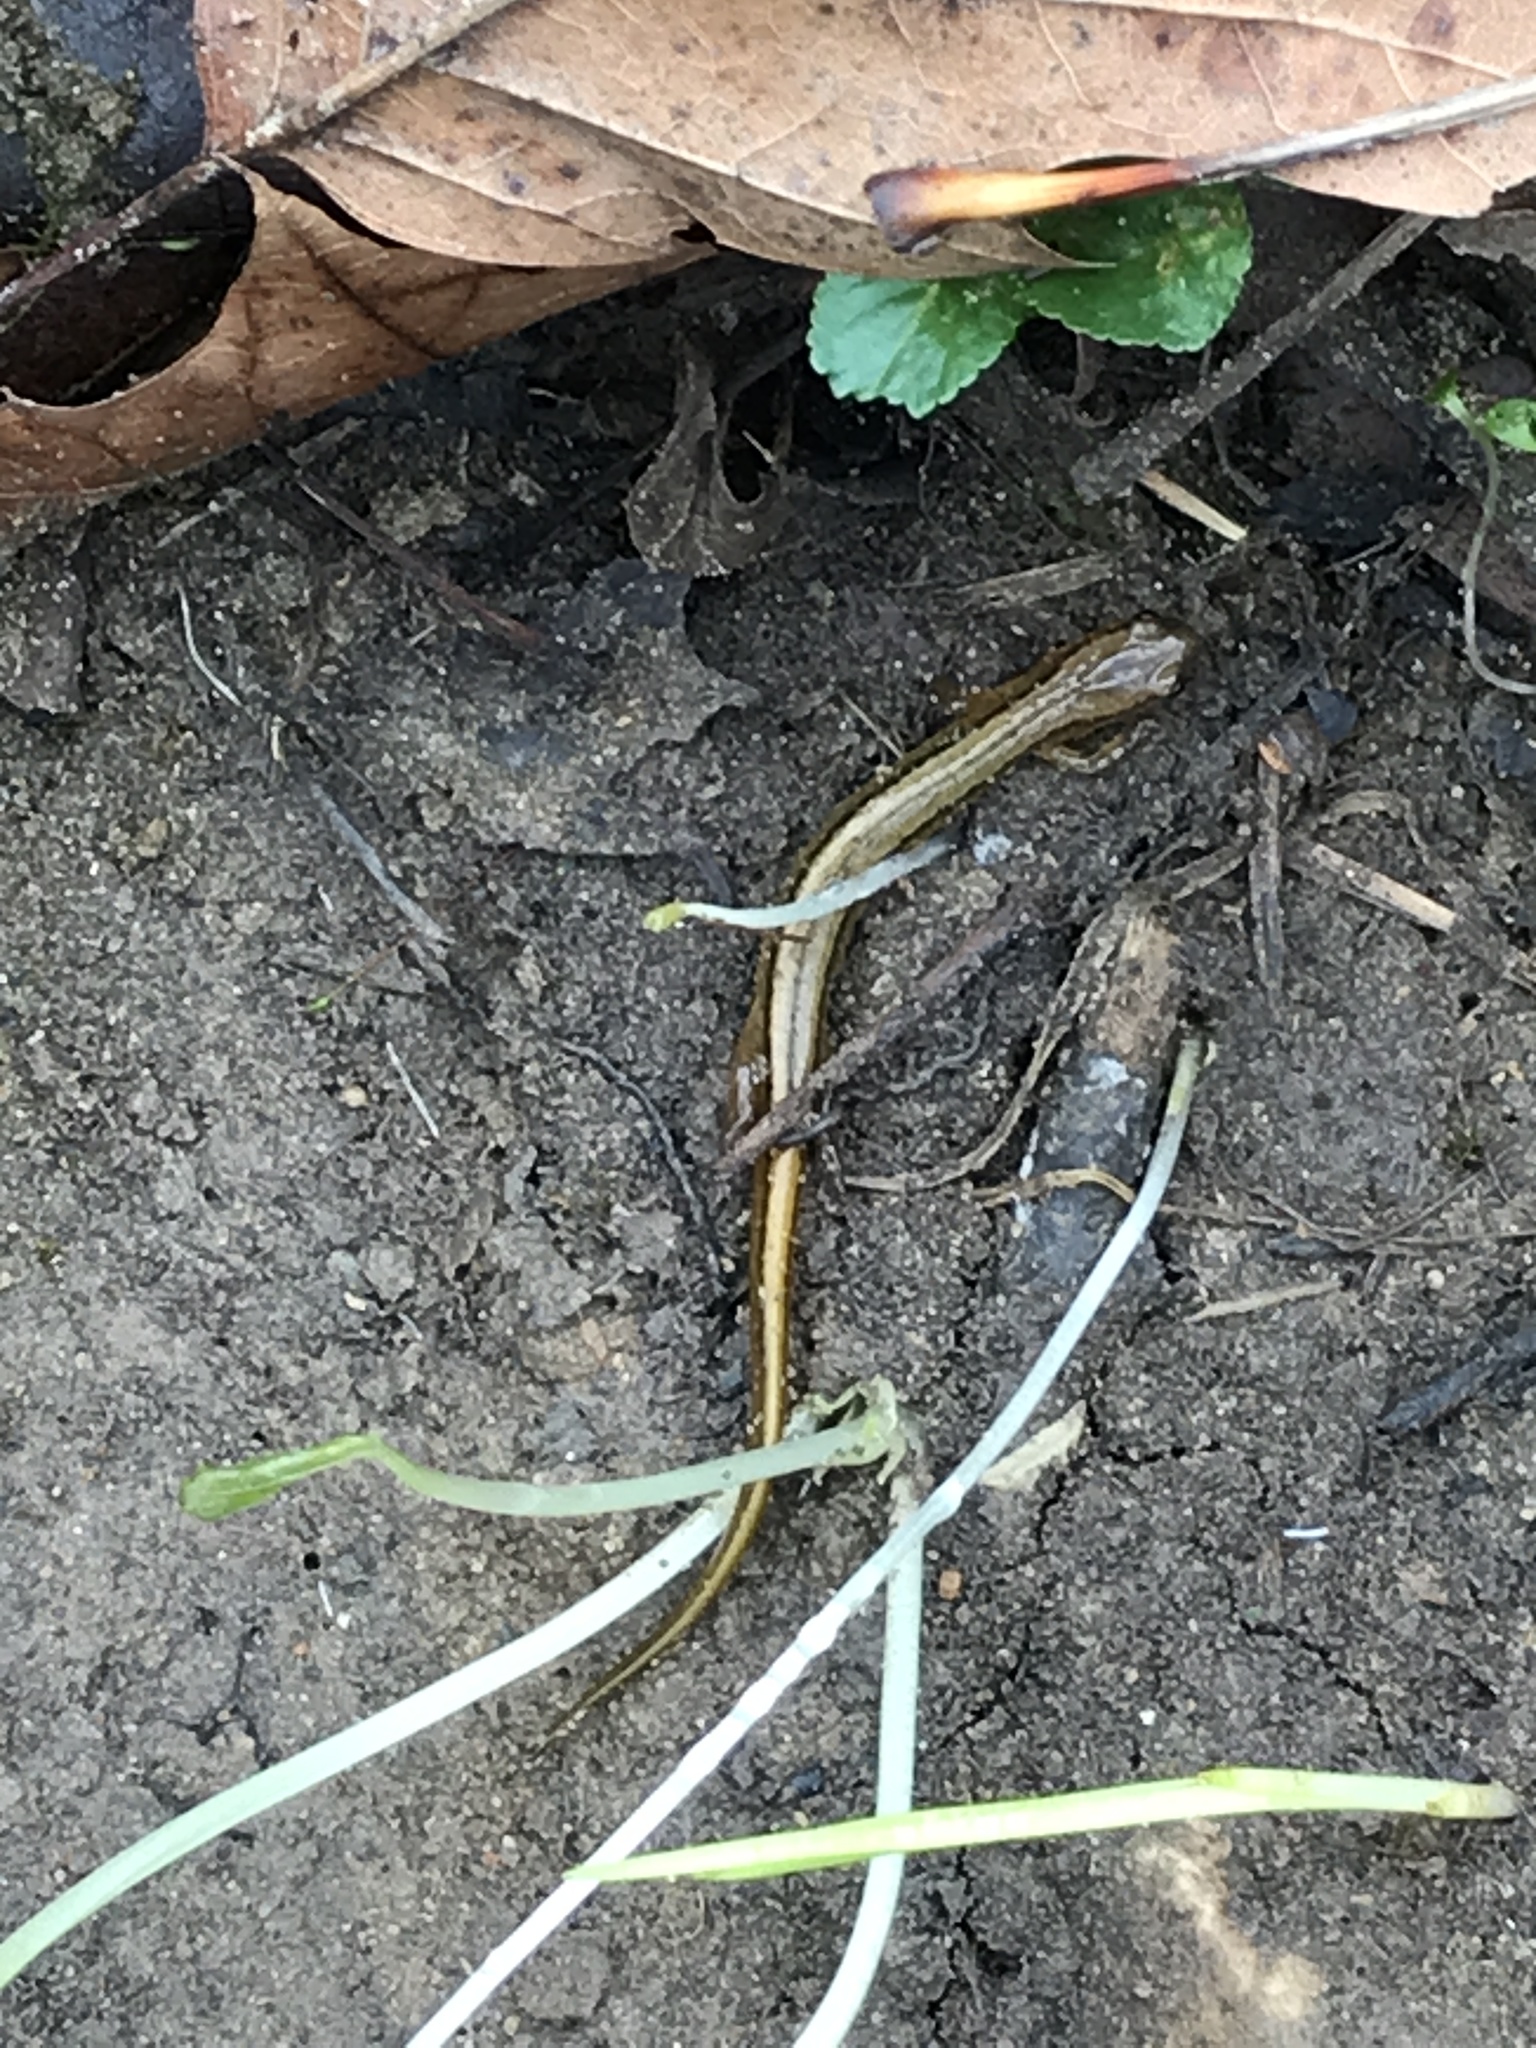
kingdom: Animalia
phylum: Chordata
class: Amphibia
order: Caudata
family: Plethodontidae
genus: Eurycea
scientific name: Eurycea cirrigera
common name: Southern two-lined salamander
